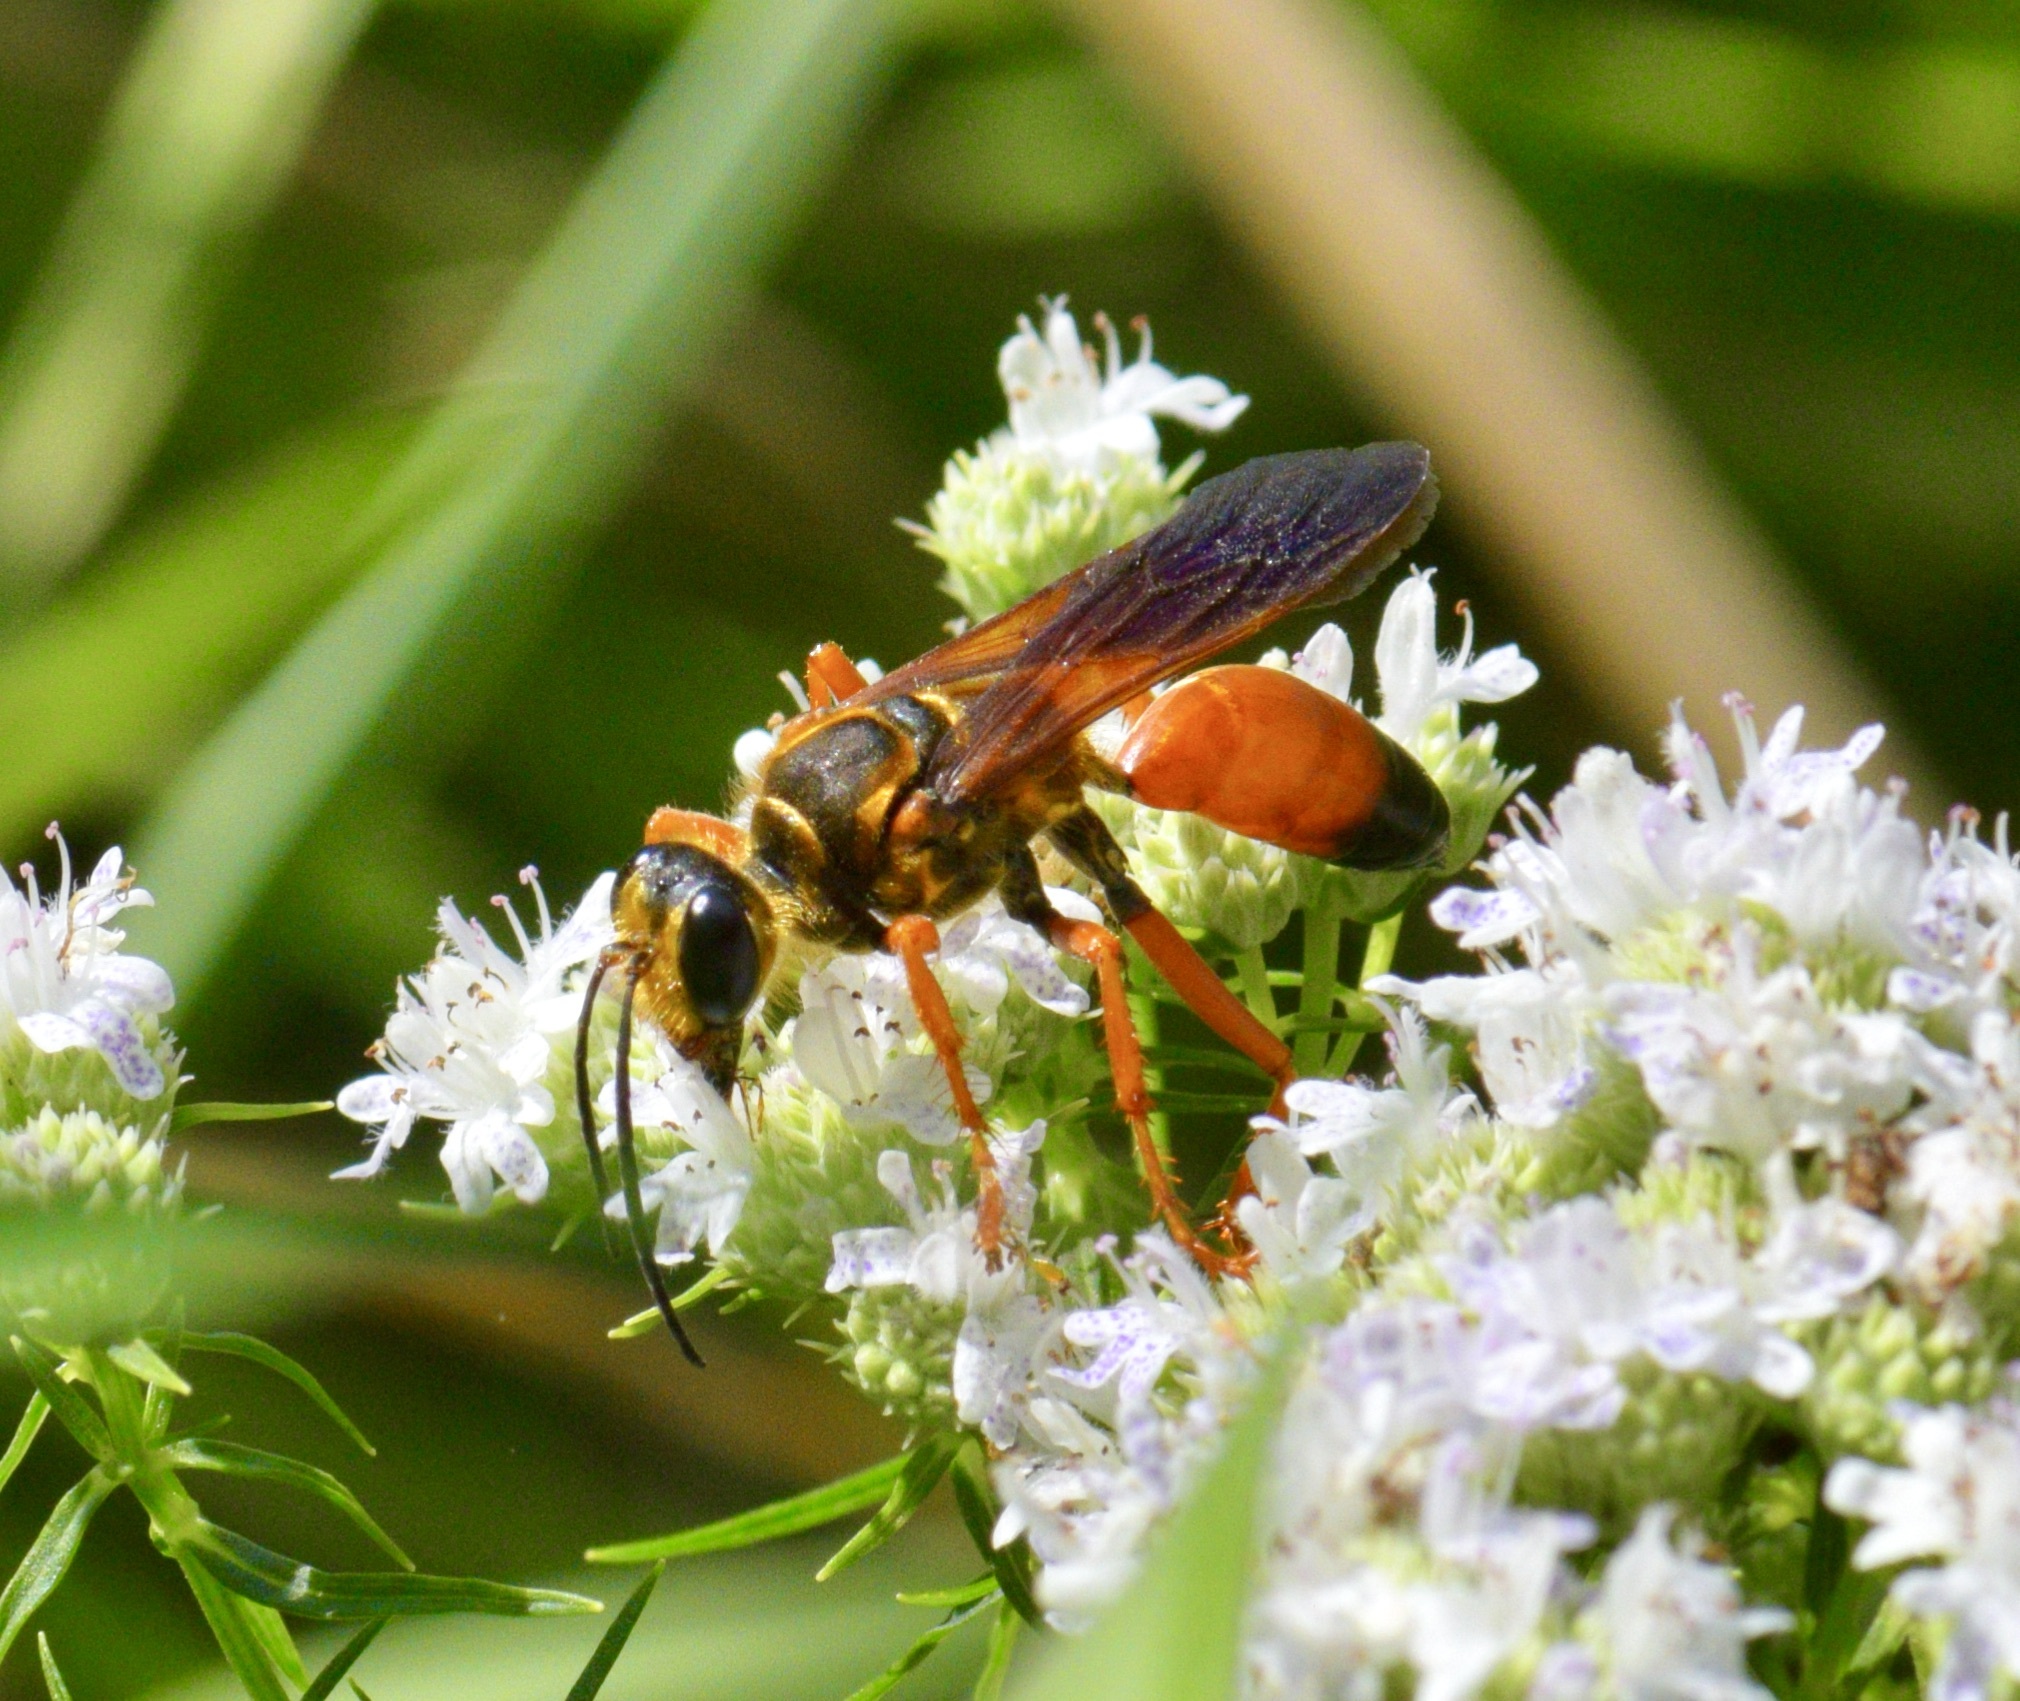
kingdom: Animalia
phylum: Arthropoda
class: Insecta
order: Hymenoptera
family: Sphecidae
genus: Sphex
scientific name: Sphex ichneumoneus
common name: Great golden digger wasp
